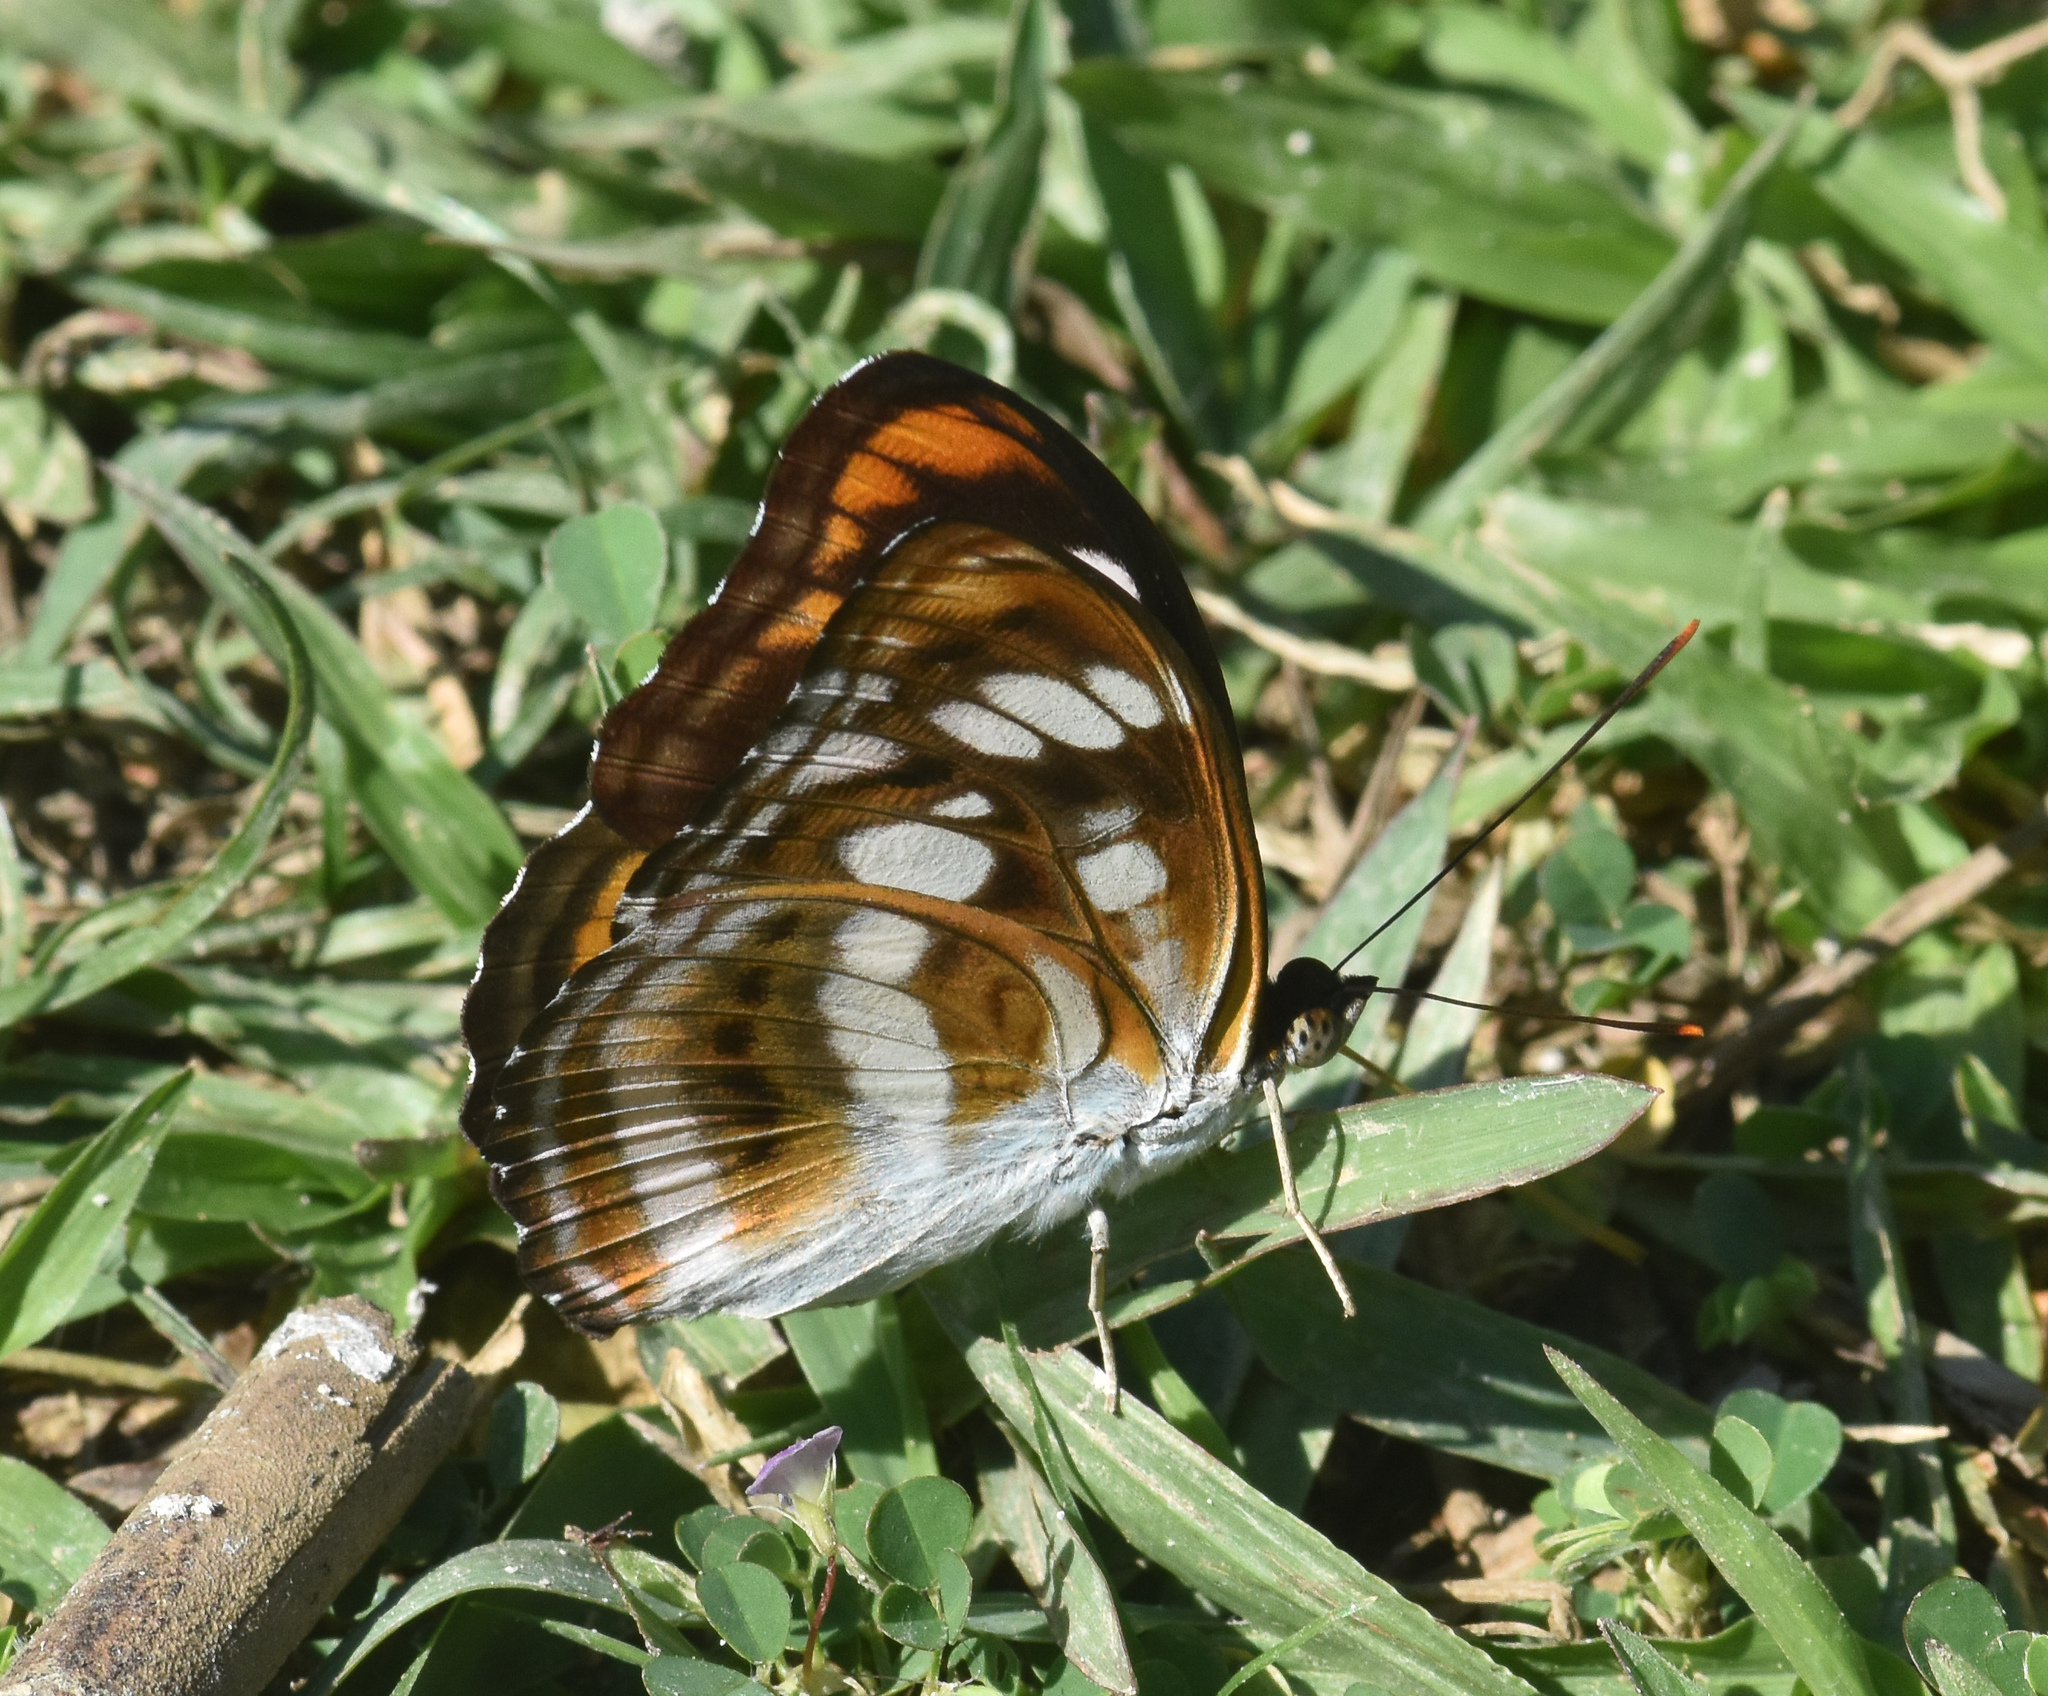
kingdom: Animalia
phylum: Arthropoda
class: Insecta
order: Lepidoptera
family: Nymphalidae
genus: Parathyma
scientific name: Parathyma nefte
